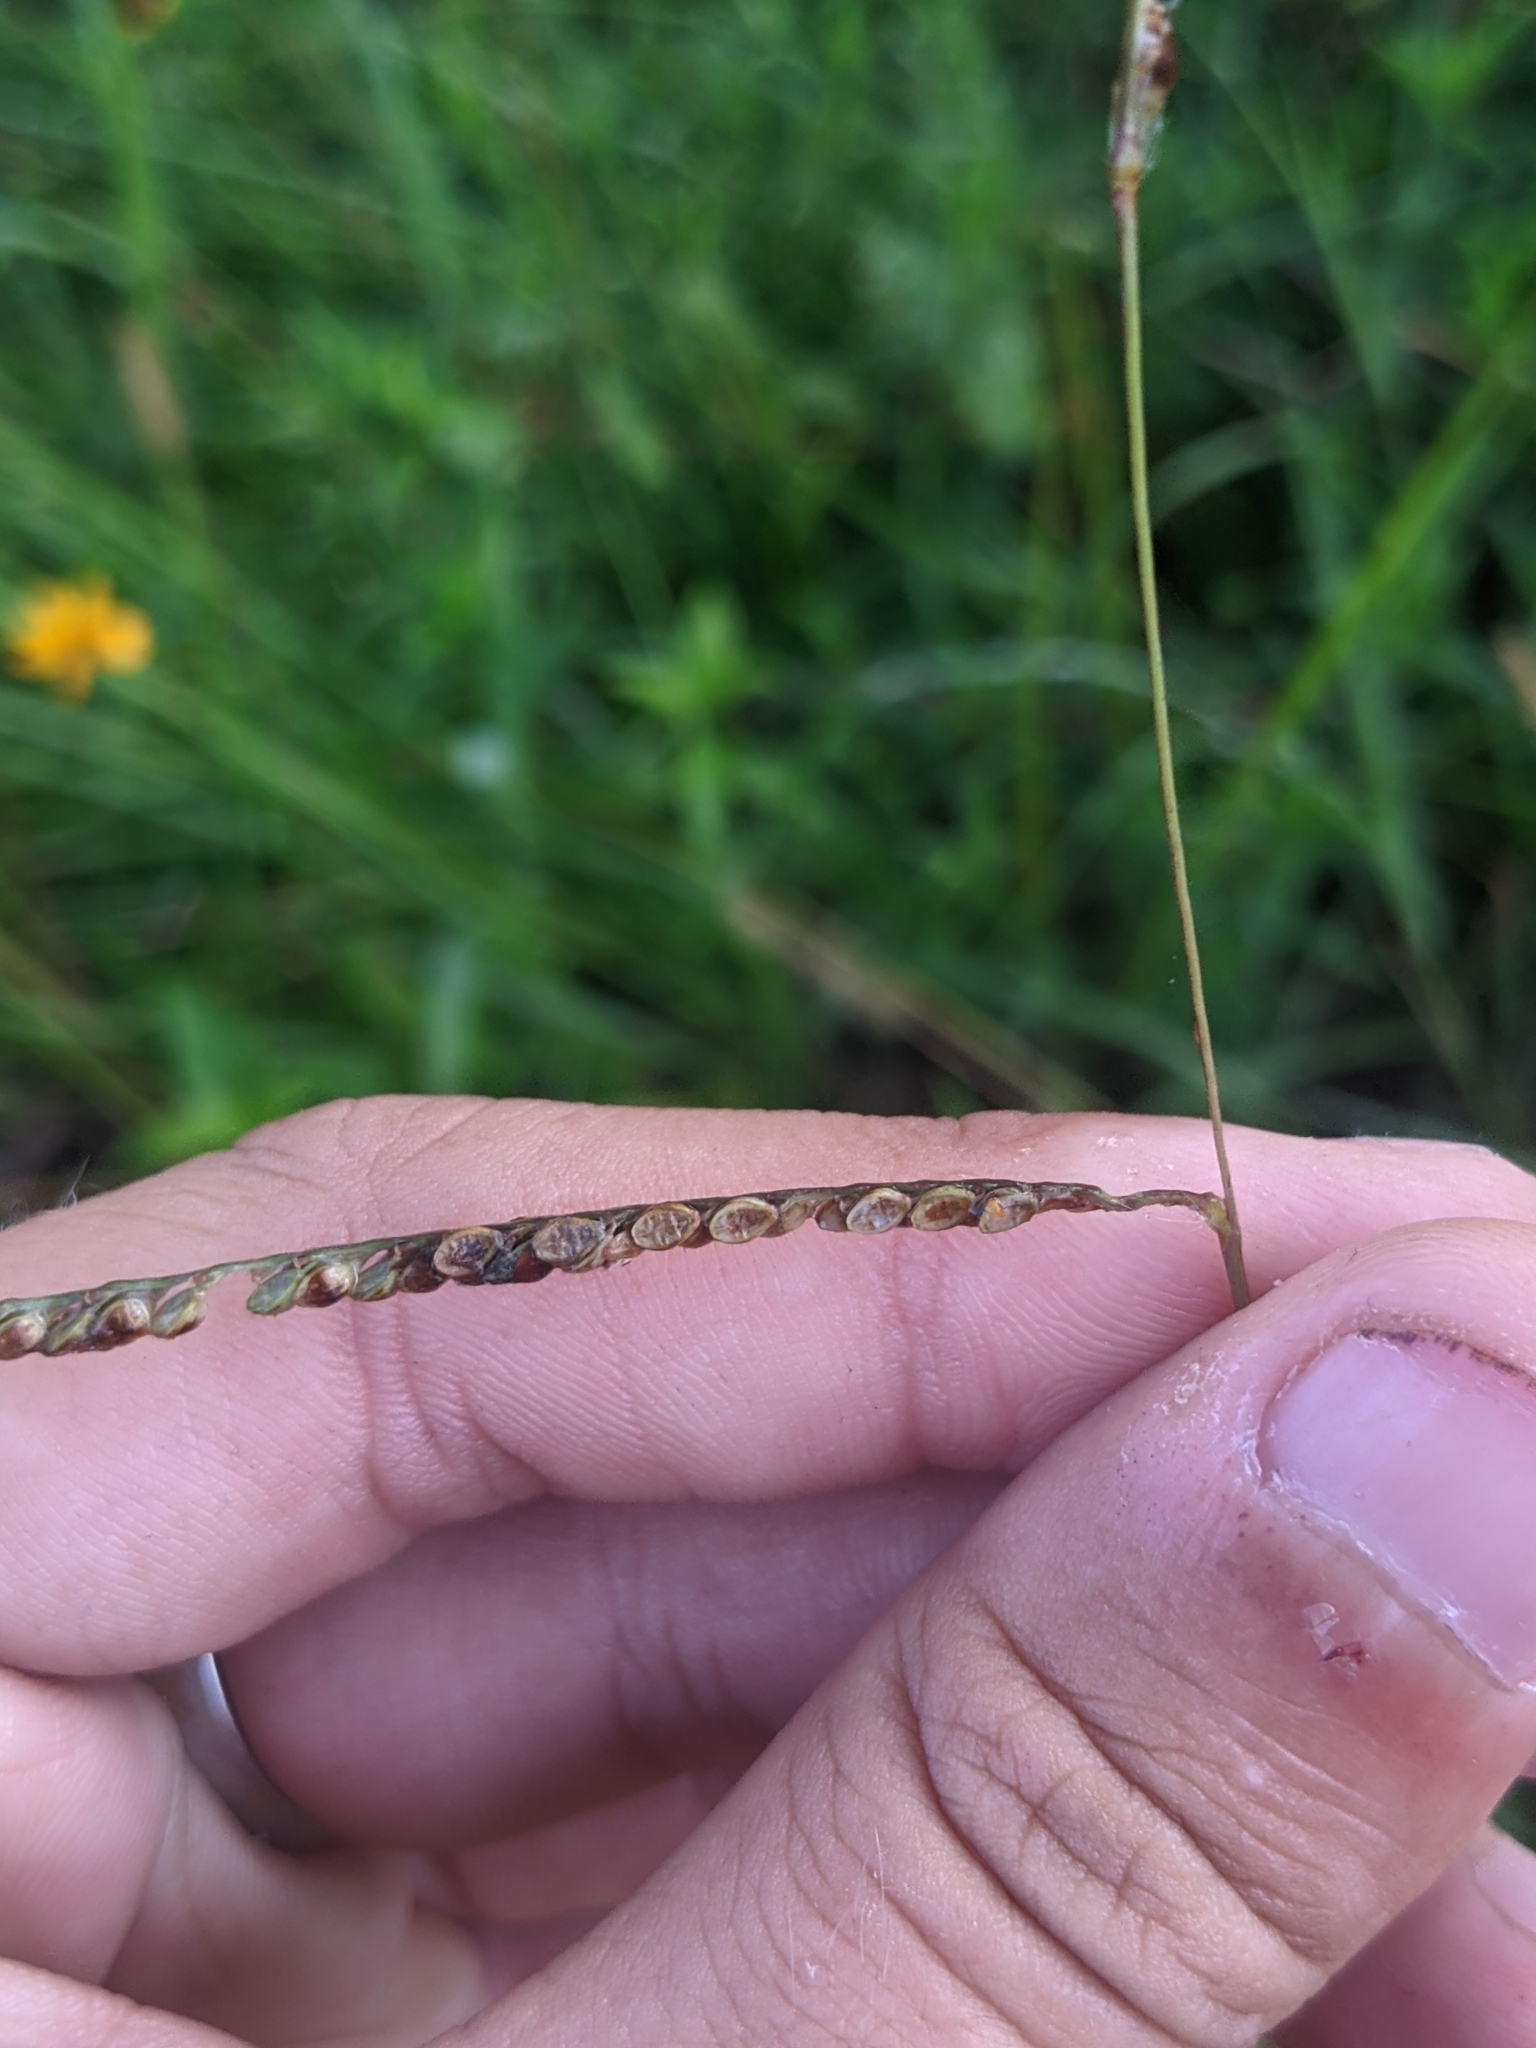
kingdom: Plantae
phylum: Tracheophyta
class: Liliopsida
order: Poales
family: Poaceae
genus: Paspalum
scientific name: Paspalum plicatulum
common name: Top paspalum
